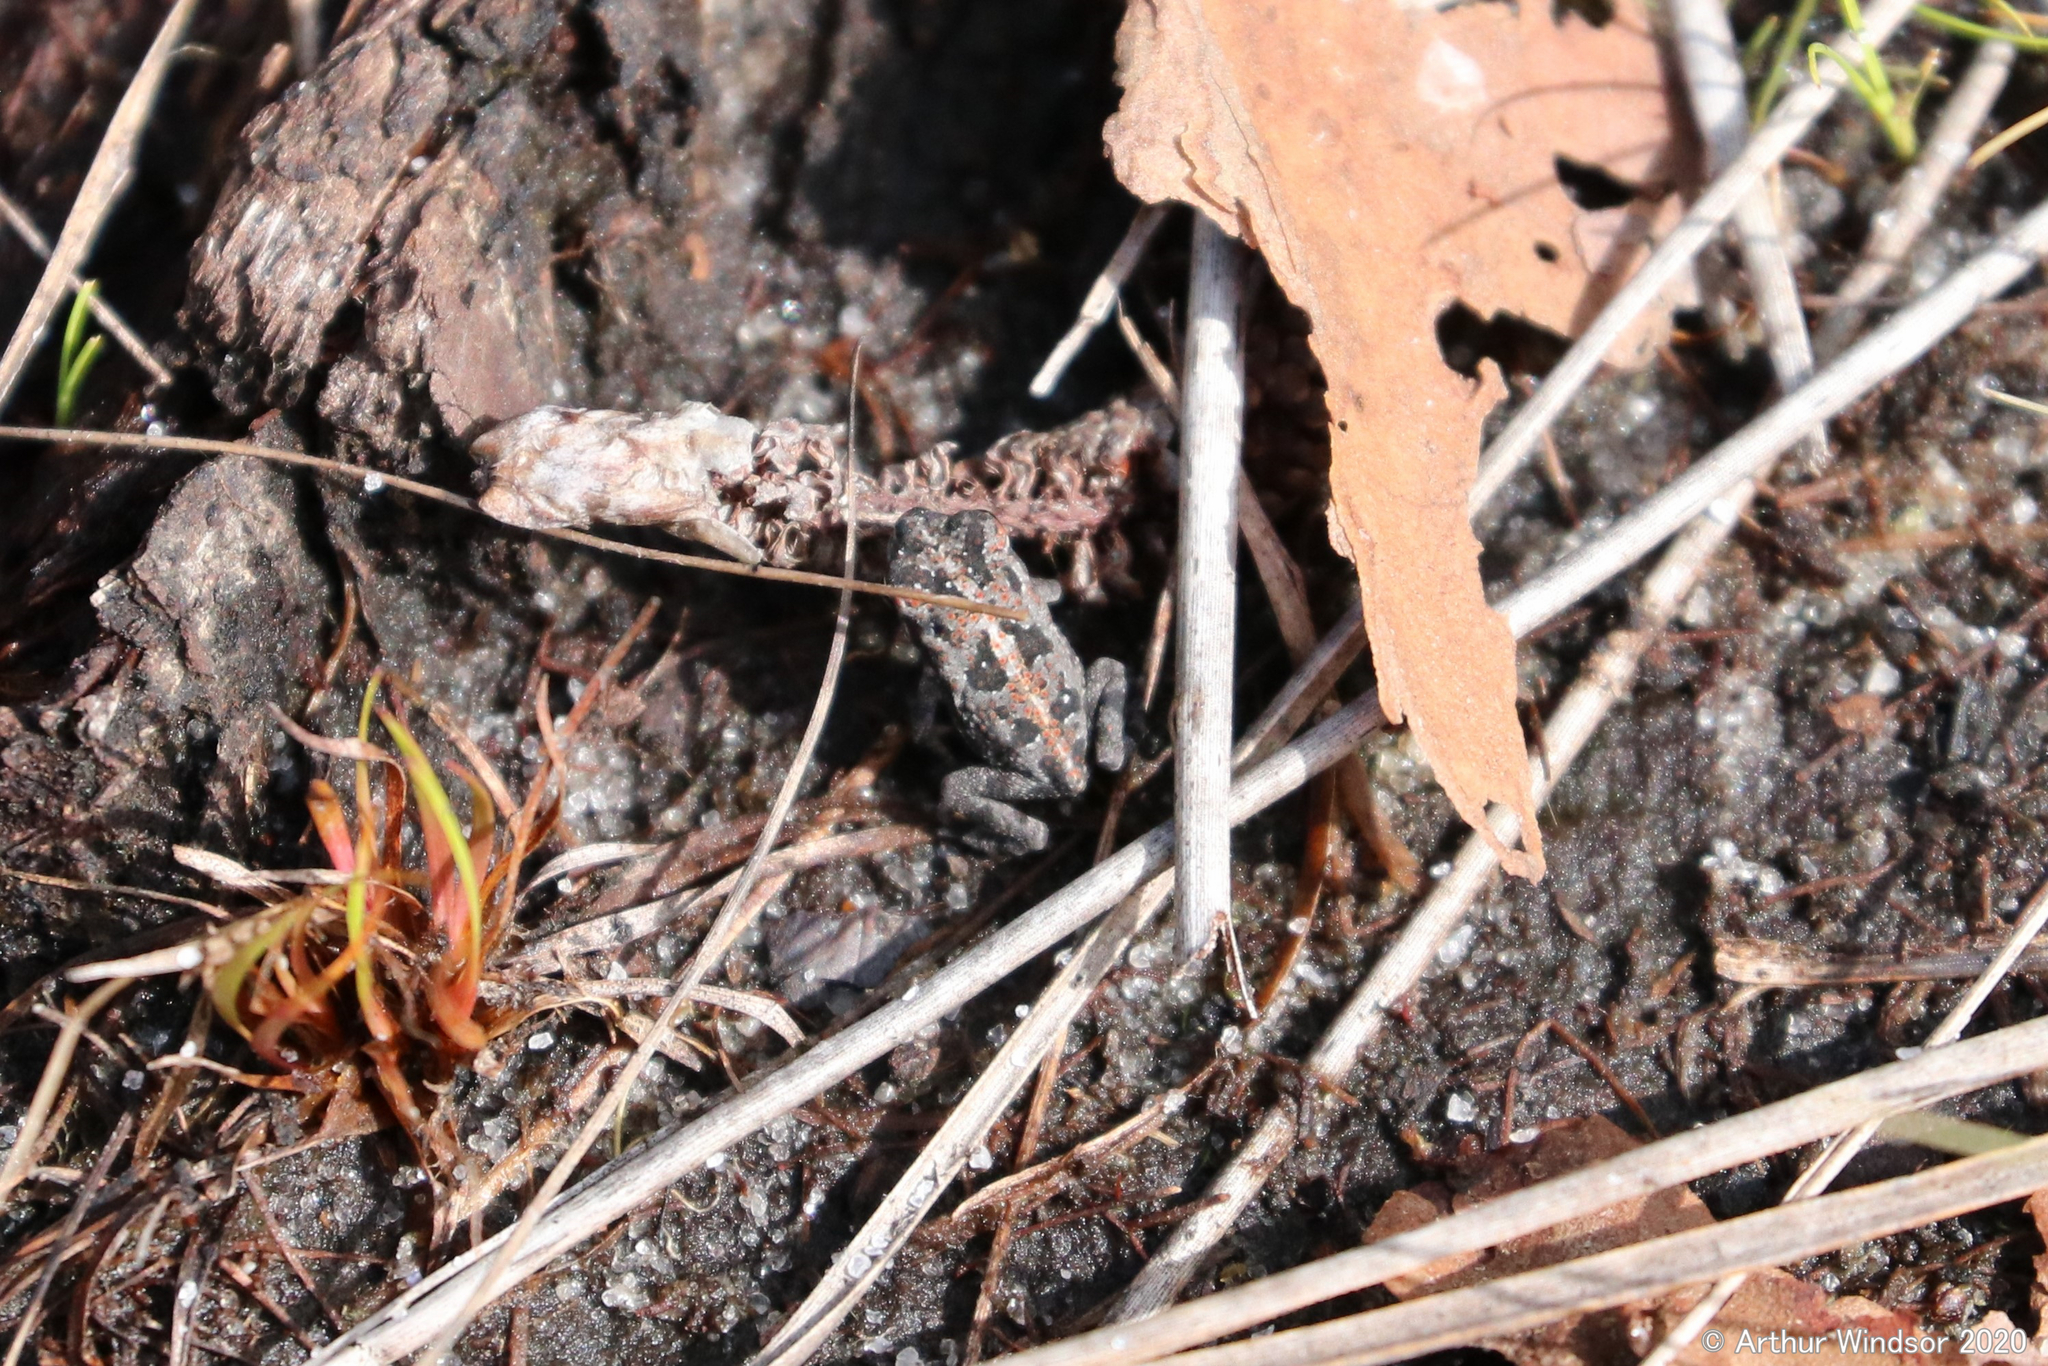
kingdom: Animalia
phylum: Chordata
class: Amphibia
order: Anura
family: Bufonidae
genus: Anaxyrus
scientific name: Anaxyrus quercicus
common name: Oak toad
